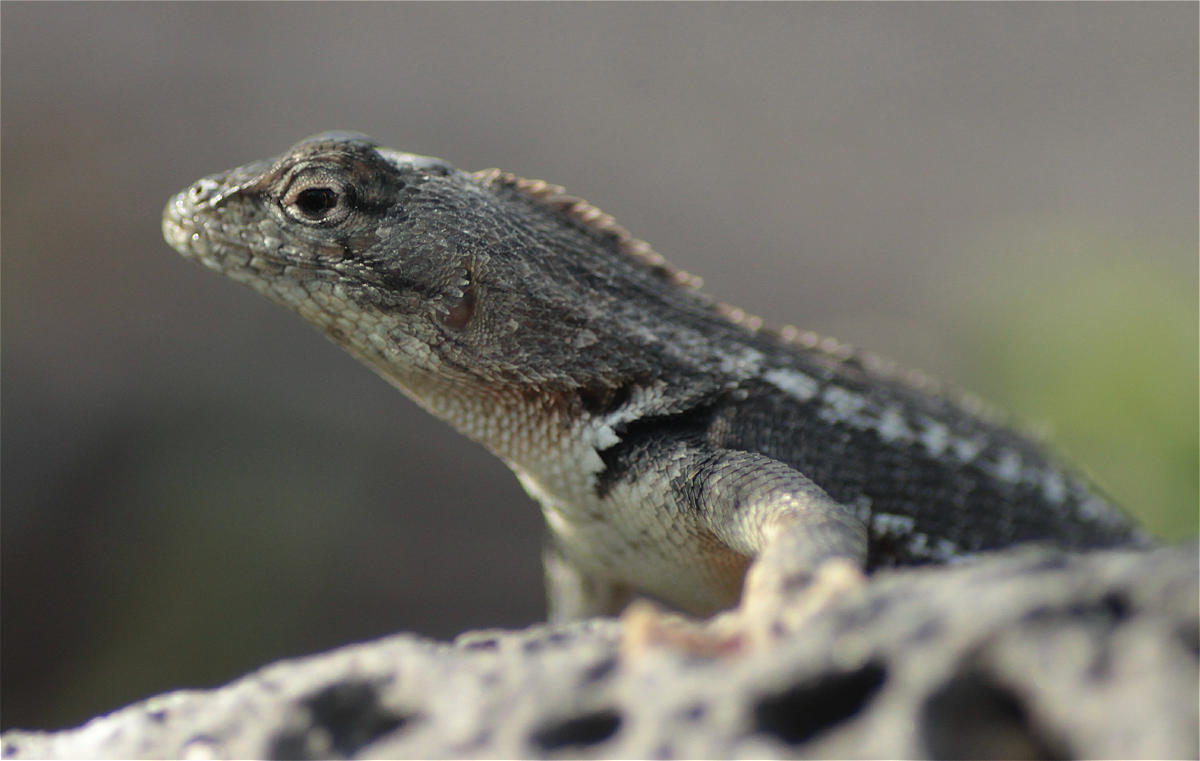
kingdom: Animalia
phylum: Chordata
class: Squamata
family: Tropiduridae
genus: Microlophus
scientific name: Microlophus bivittatus
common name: San cristobal lava lizard
